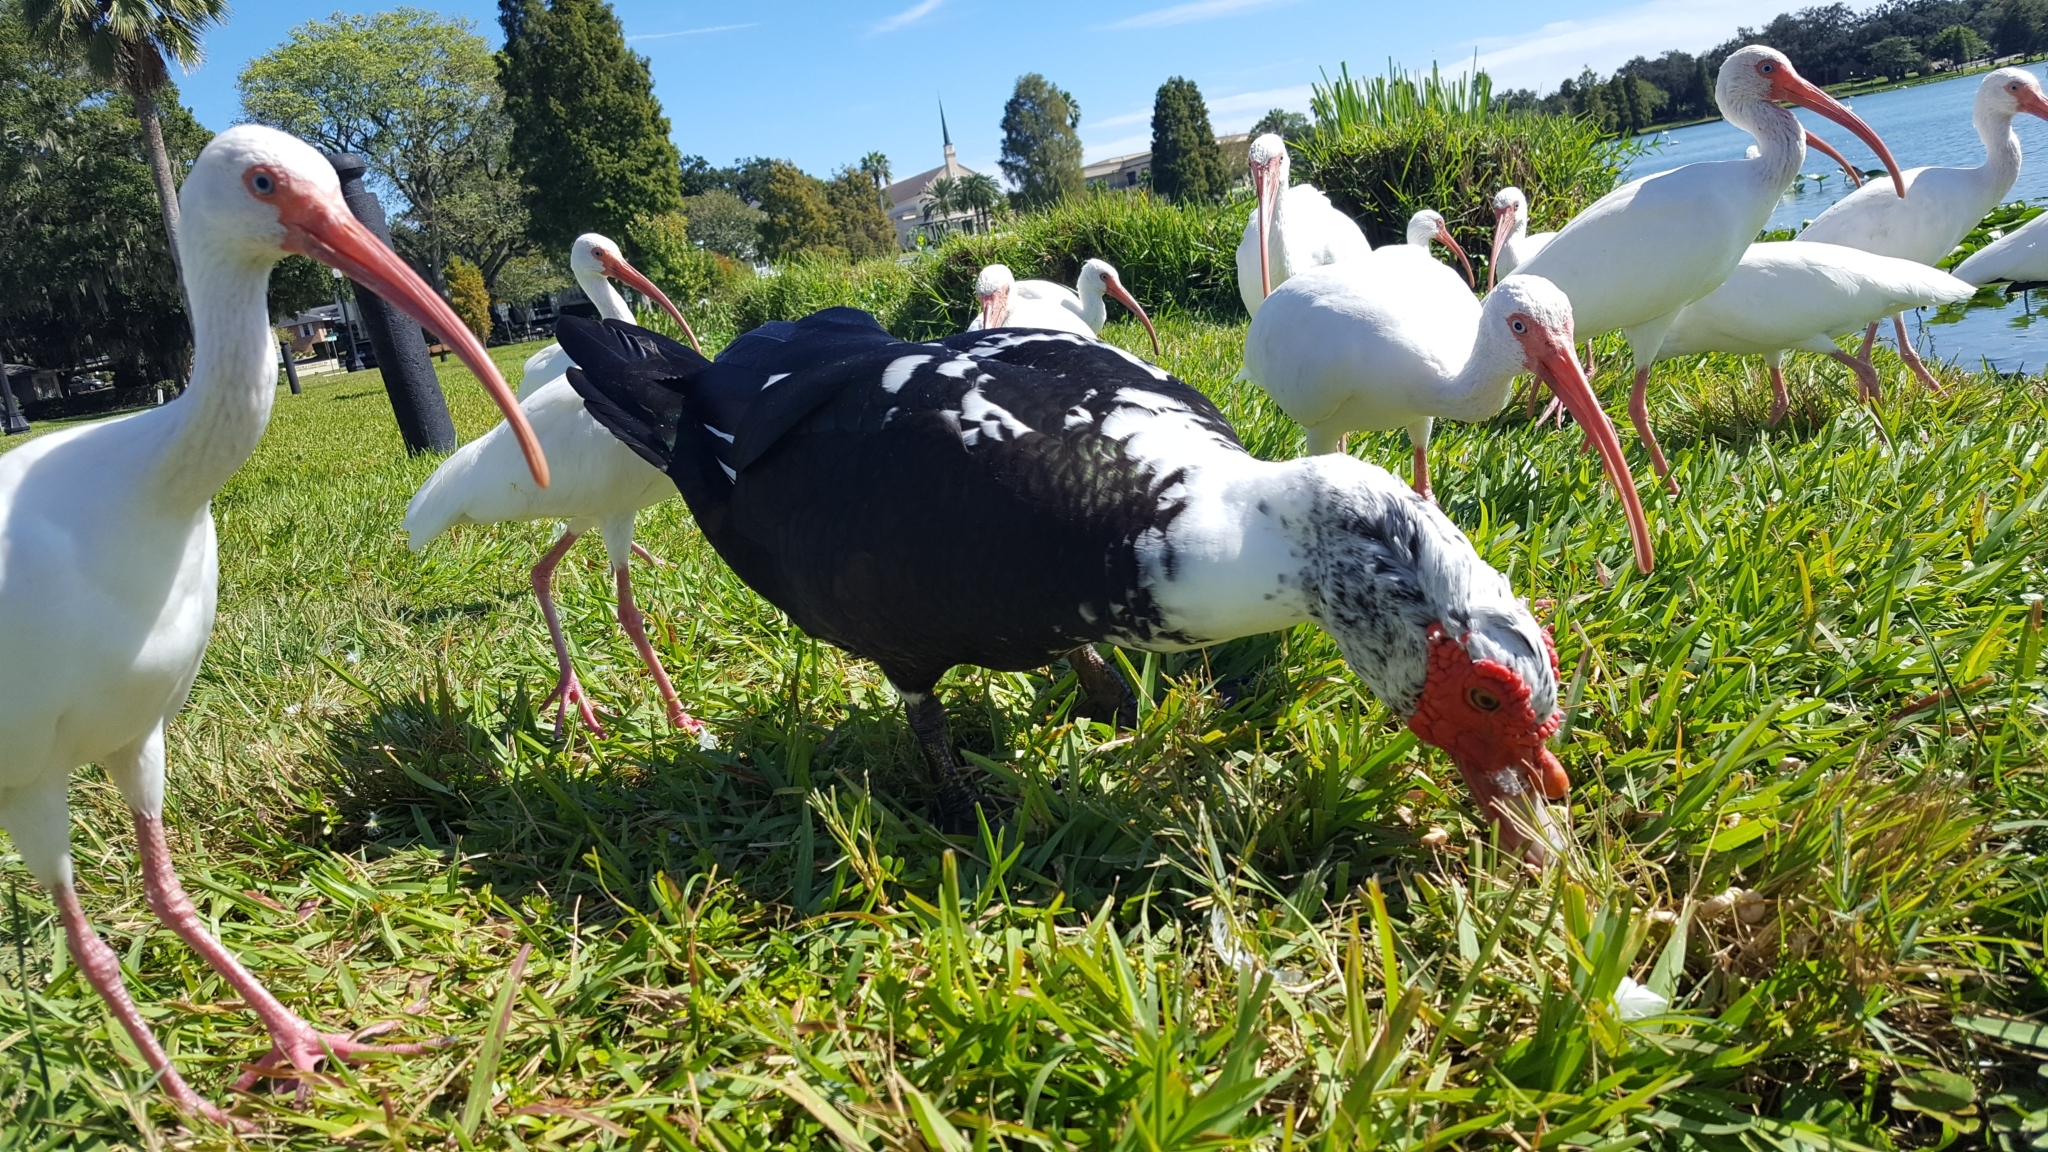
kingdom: Animalia
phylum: Chordata
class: Aves
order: Anseriformes
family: Anatidae
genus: Cairina
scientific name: Cairina moschata
